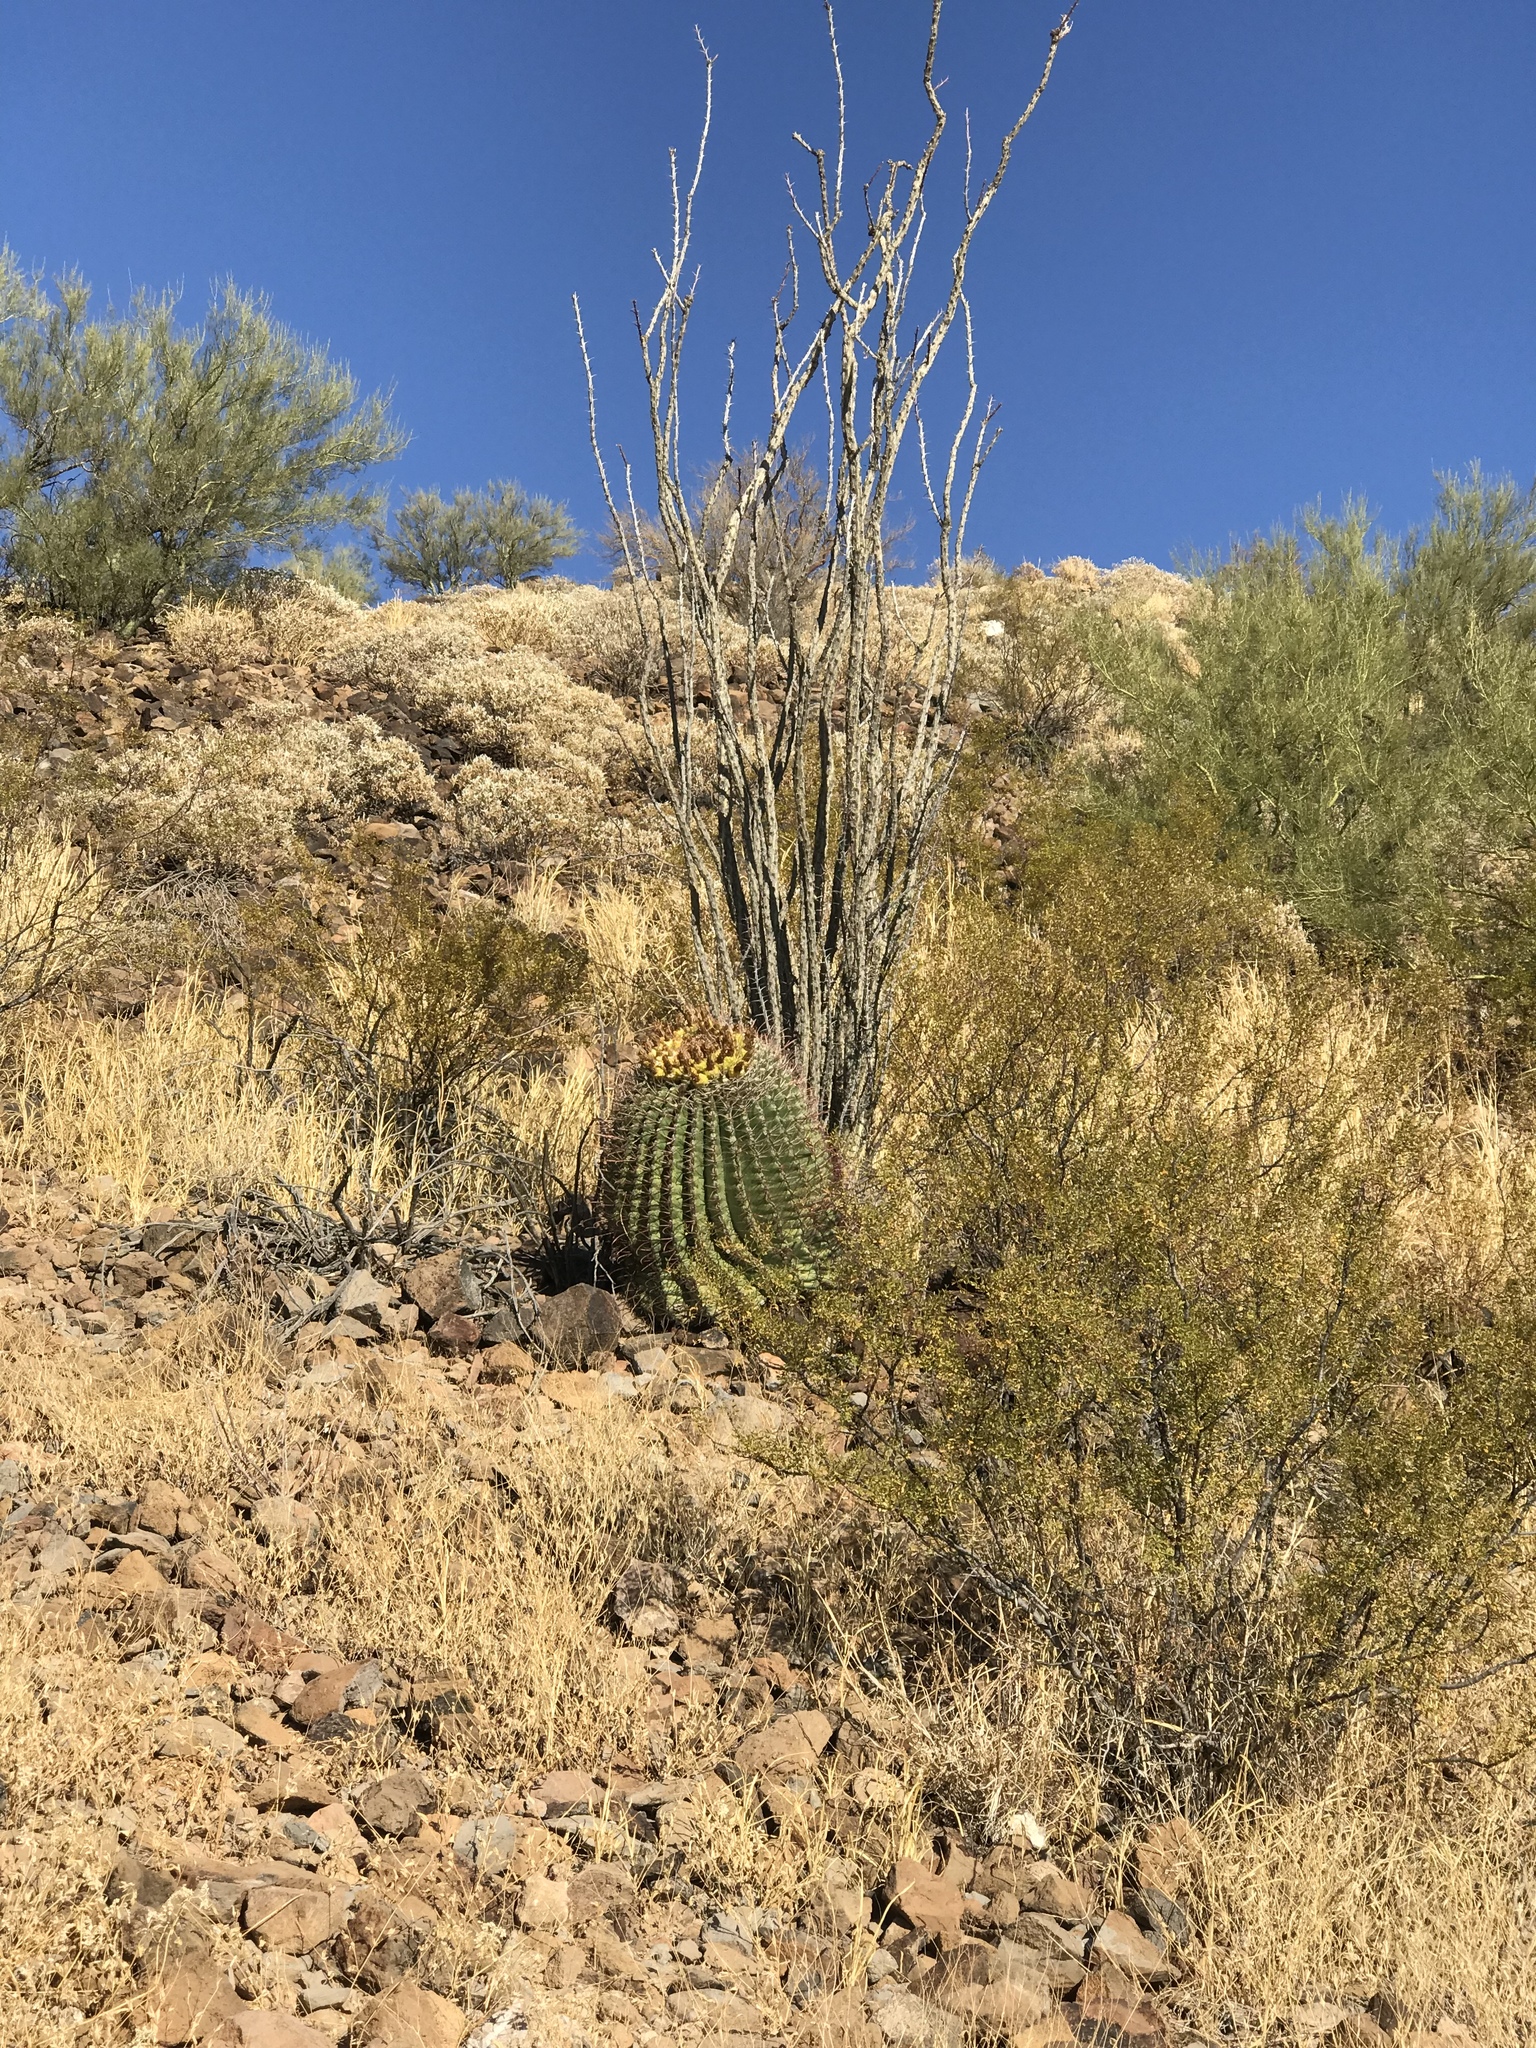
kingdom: Plantae
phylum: Tracheophyta
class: Magnoliopsida
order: Caryophyllales
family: Cactaceae
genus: Ferocactus
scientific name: Ferocactus wislizeni
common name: Candy barrel cactus
